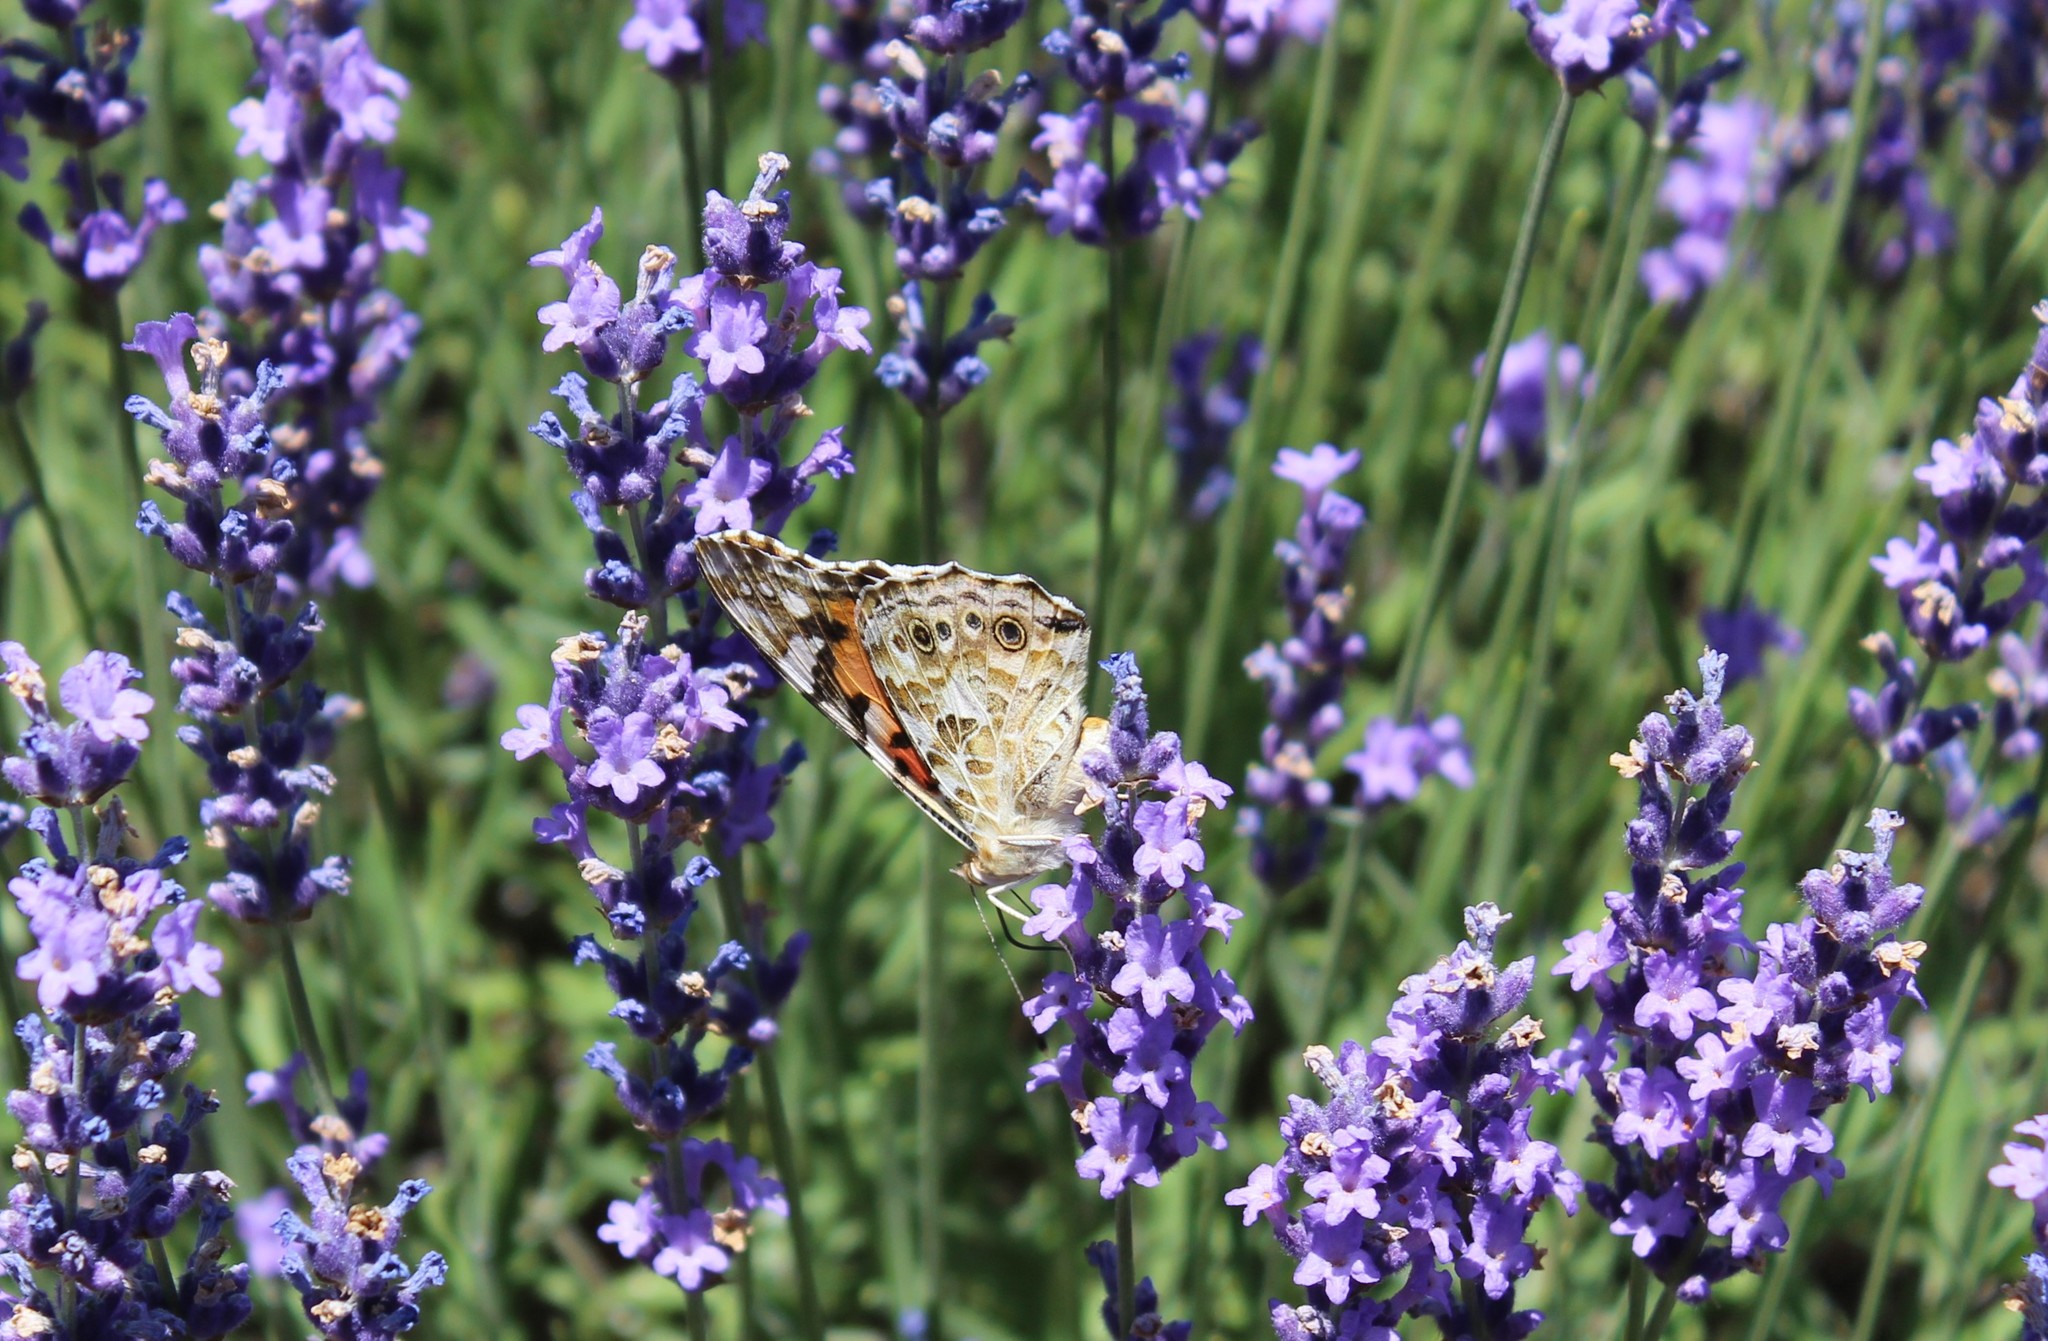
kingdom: Animalia
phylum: Arthropoda
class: Insecta
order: Lepidoptera
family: Nymphalidae
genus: Vanessa
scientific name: Vanessa cardui
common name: Painted lady
